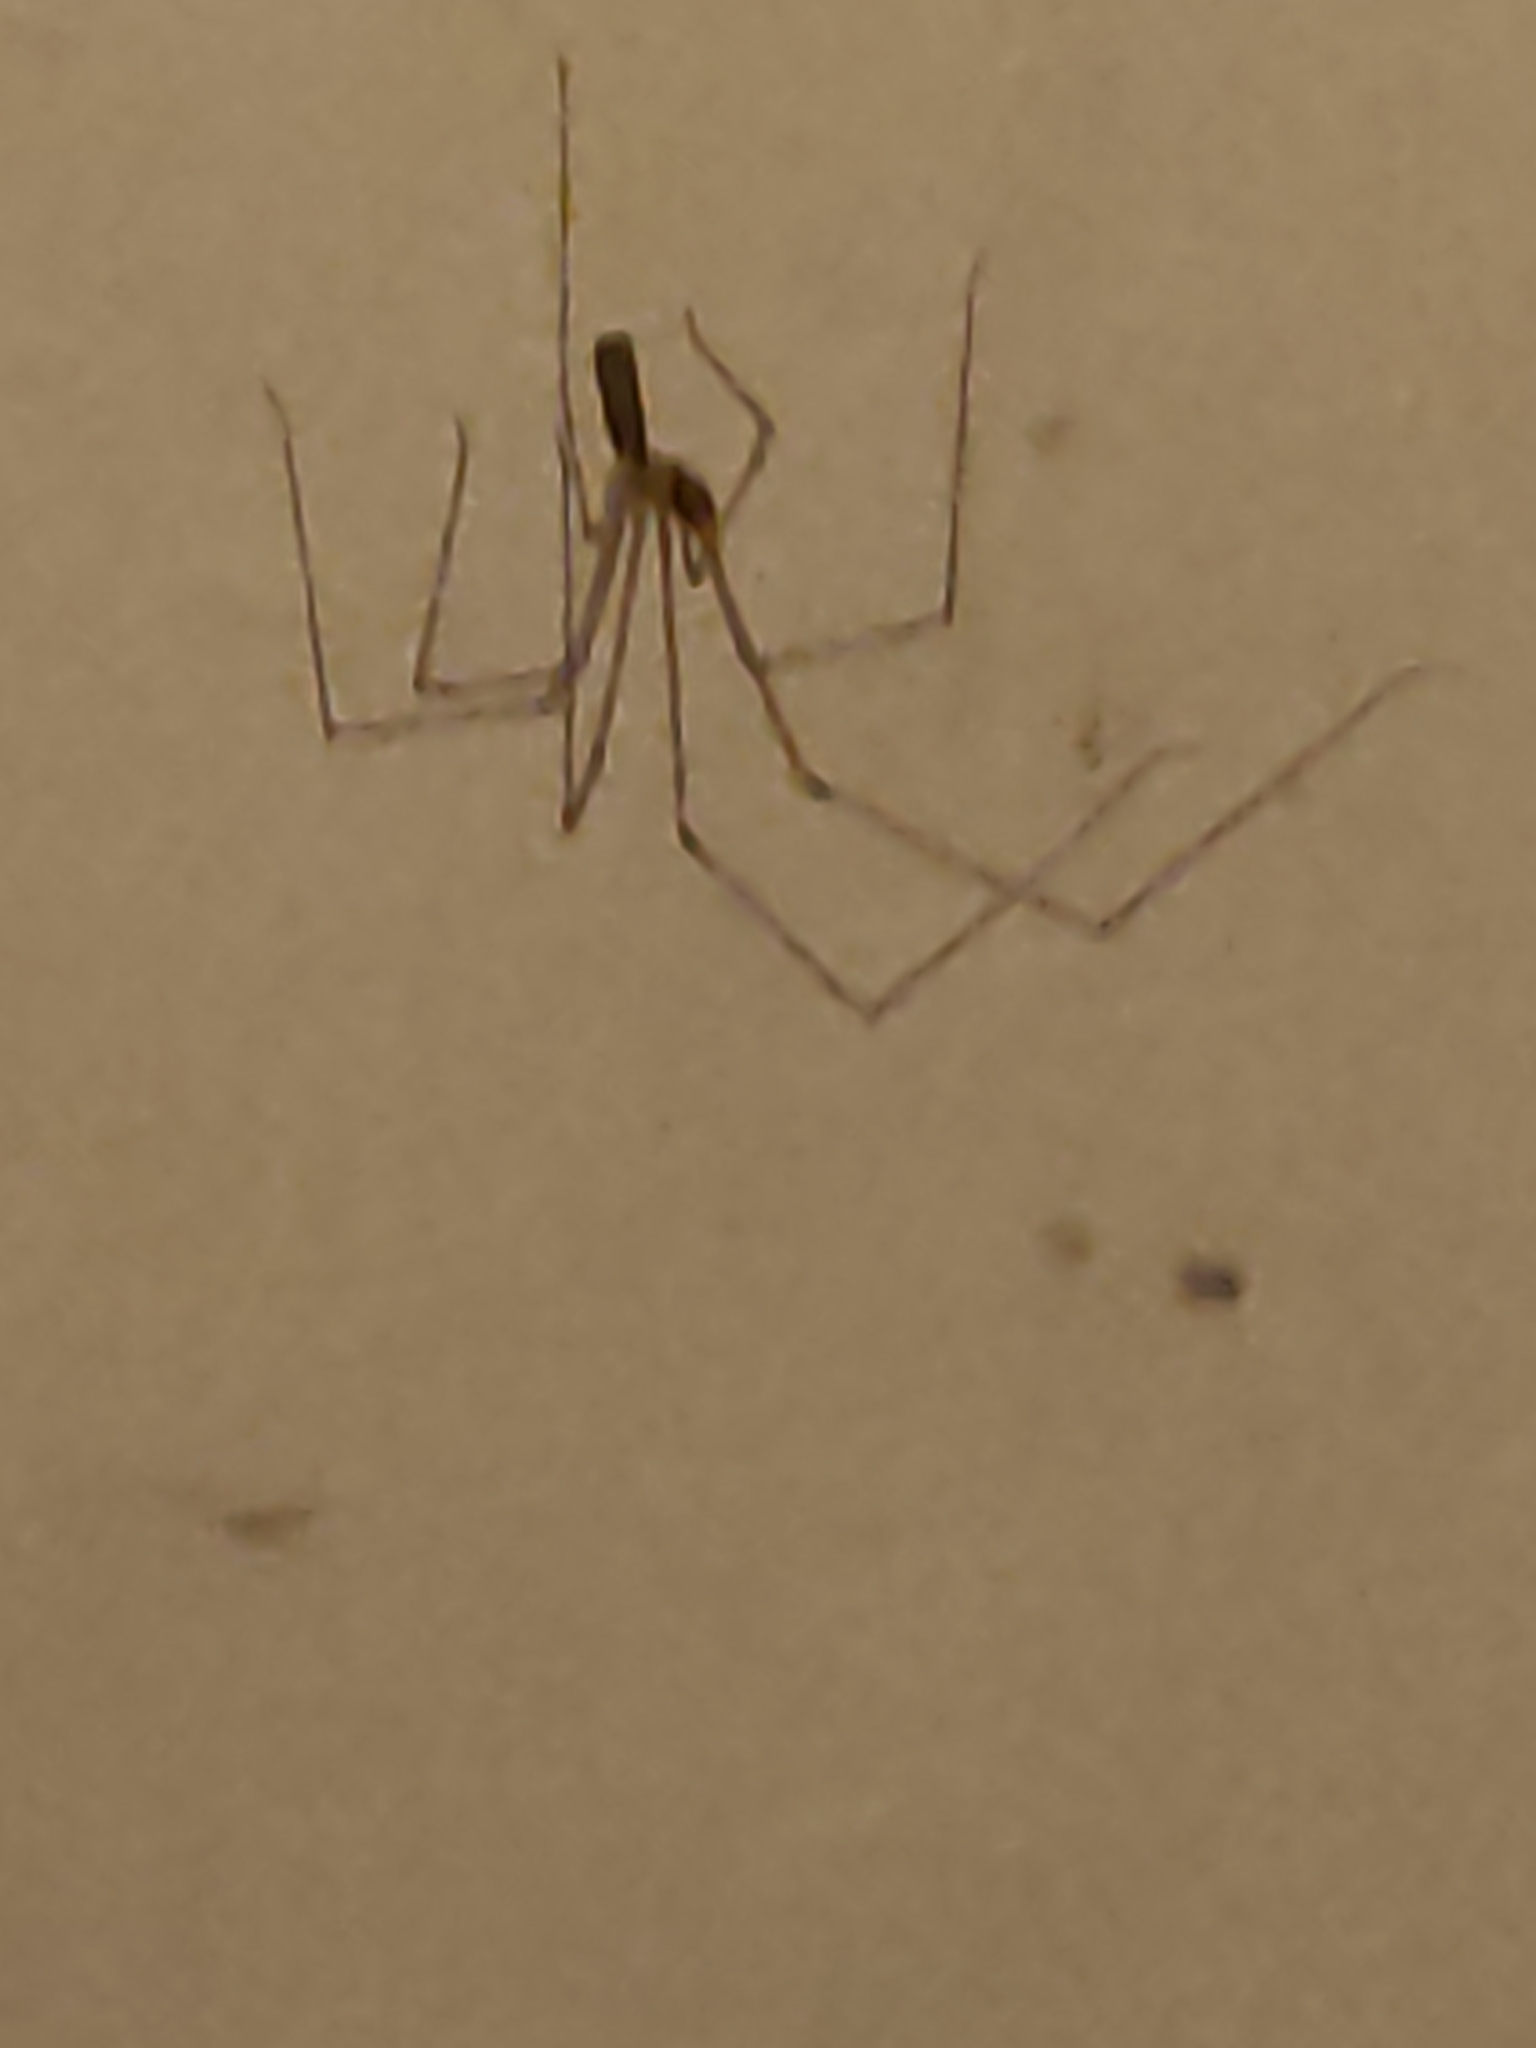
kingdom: Animalia
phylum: Arthropoda
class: Arachnida
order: Araneae
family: Pholcidae
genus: Pholcus
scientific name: Pholcus phalangioides
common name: Longbodied cellar spider
